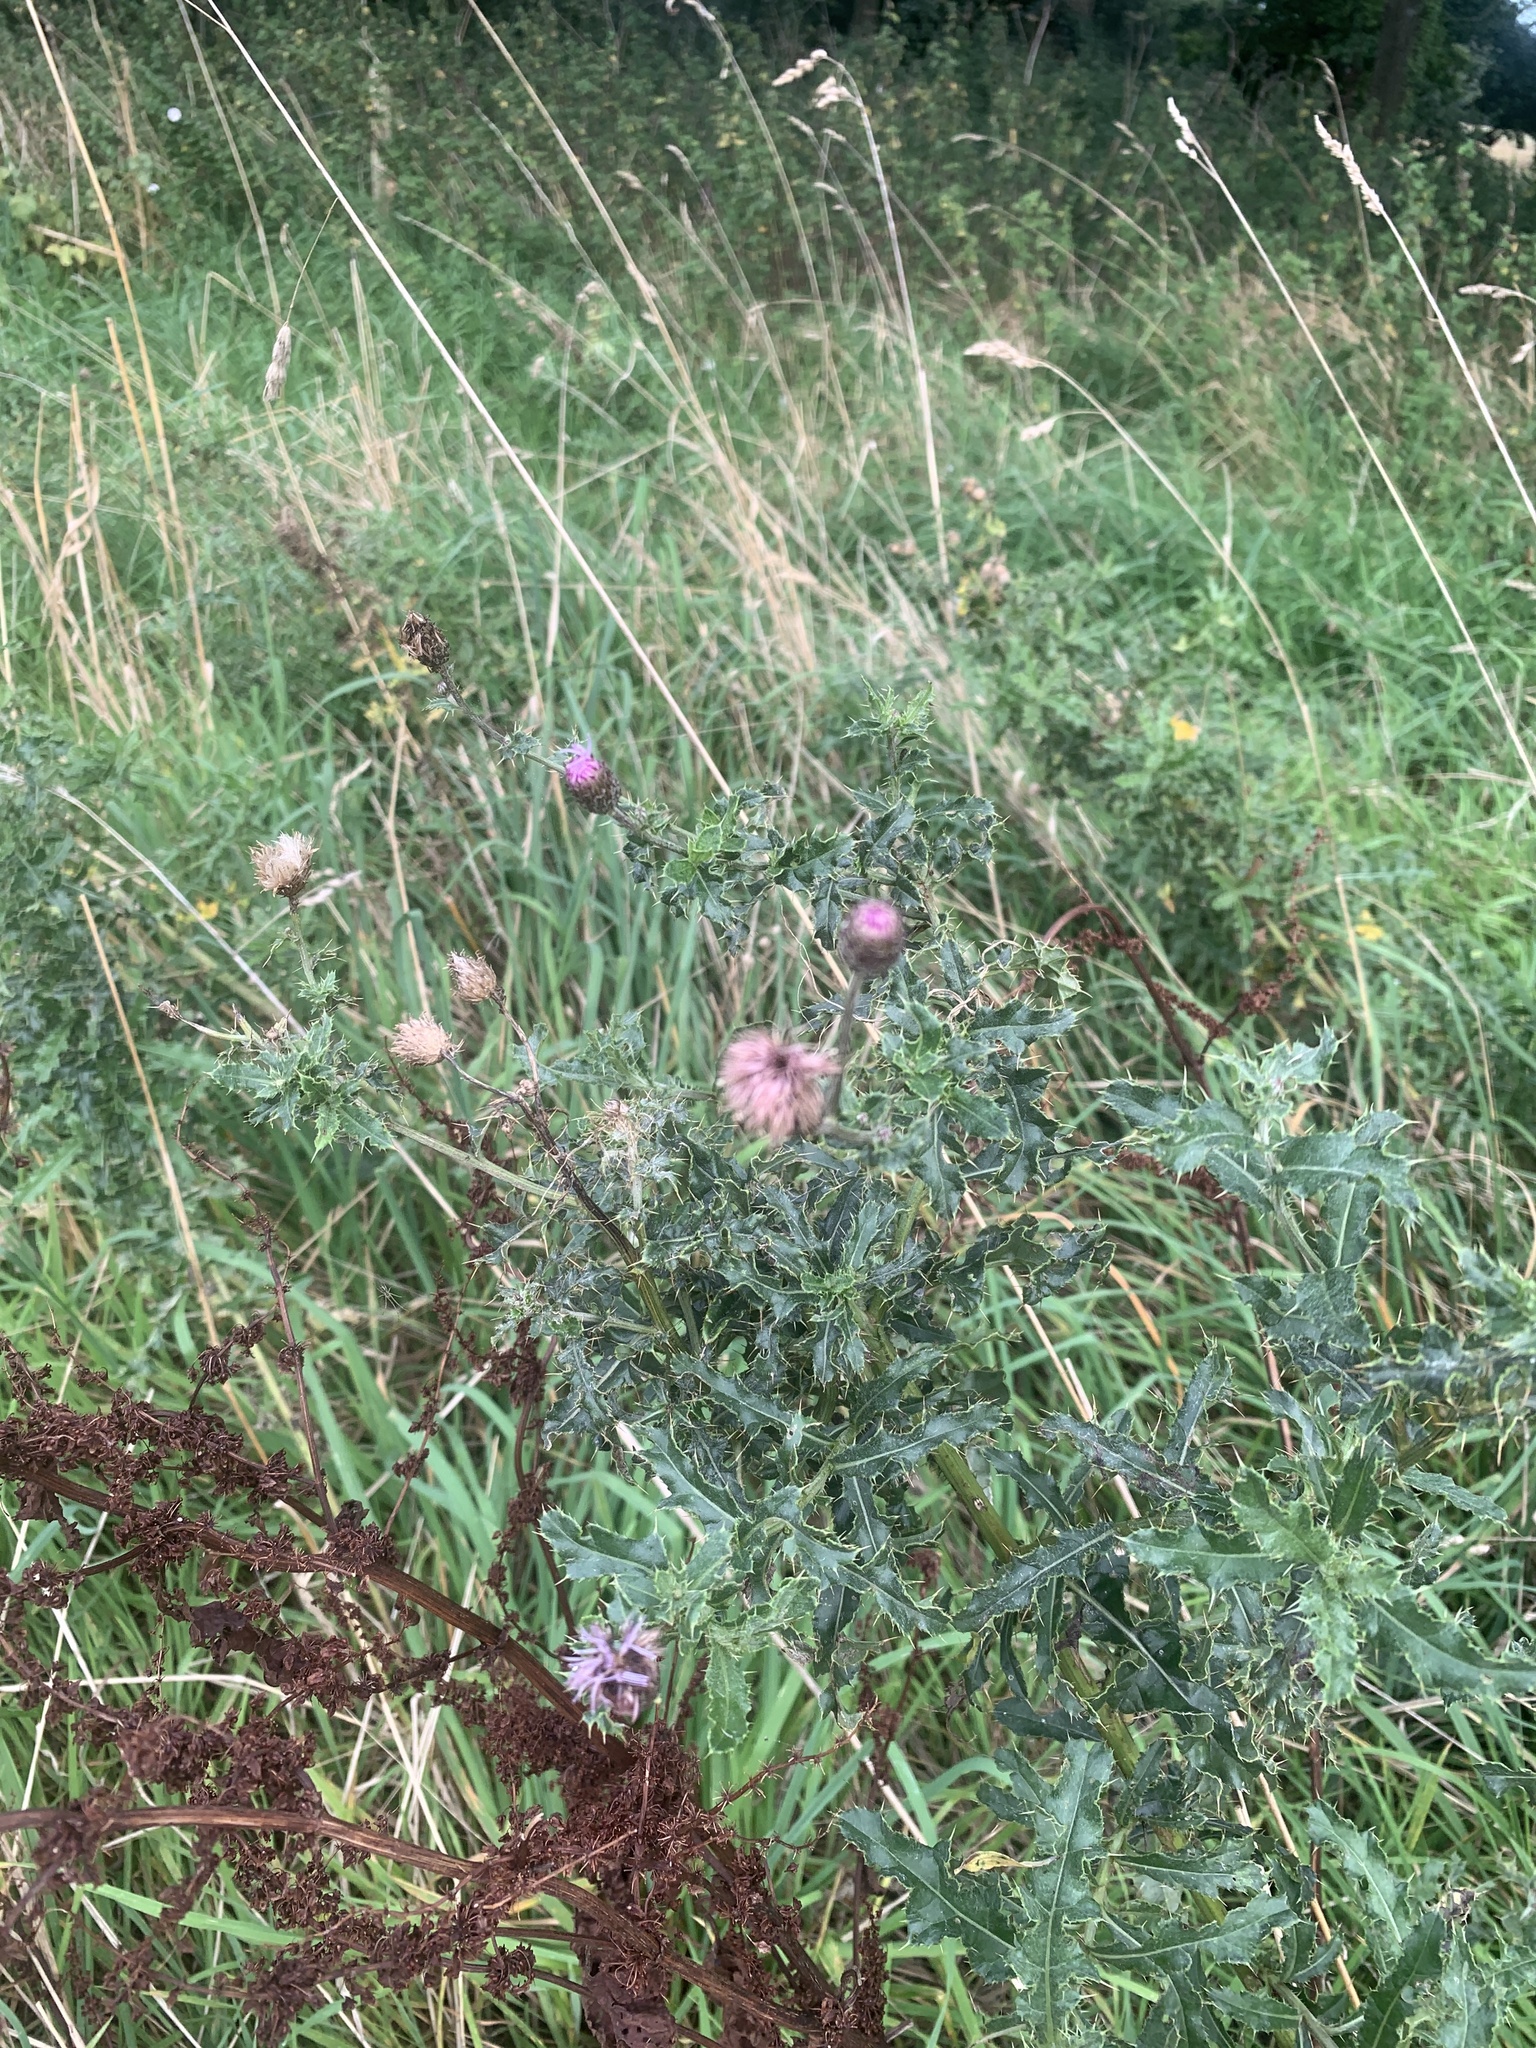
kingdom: Plantae
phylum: Tracheophyta
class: Magnoliopsida
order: Asterales
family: Asteraceae
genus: Cirsium
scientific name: Cirsium arvense
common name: Creeping thistle
